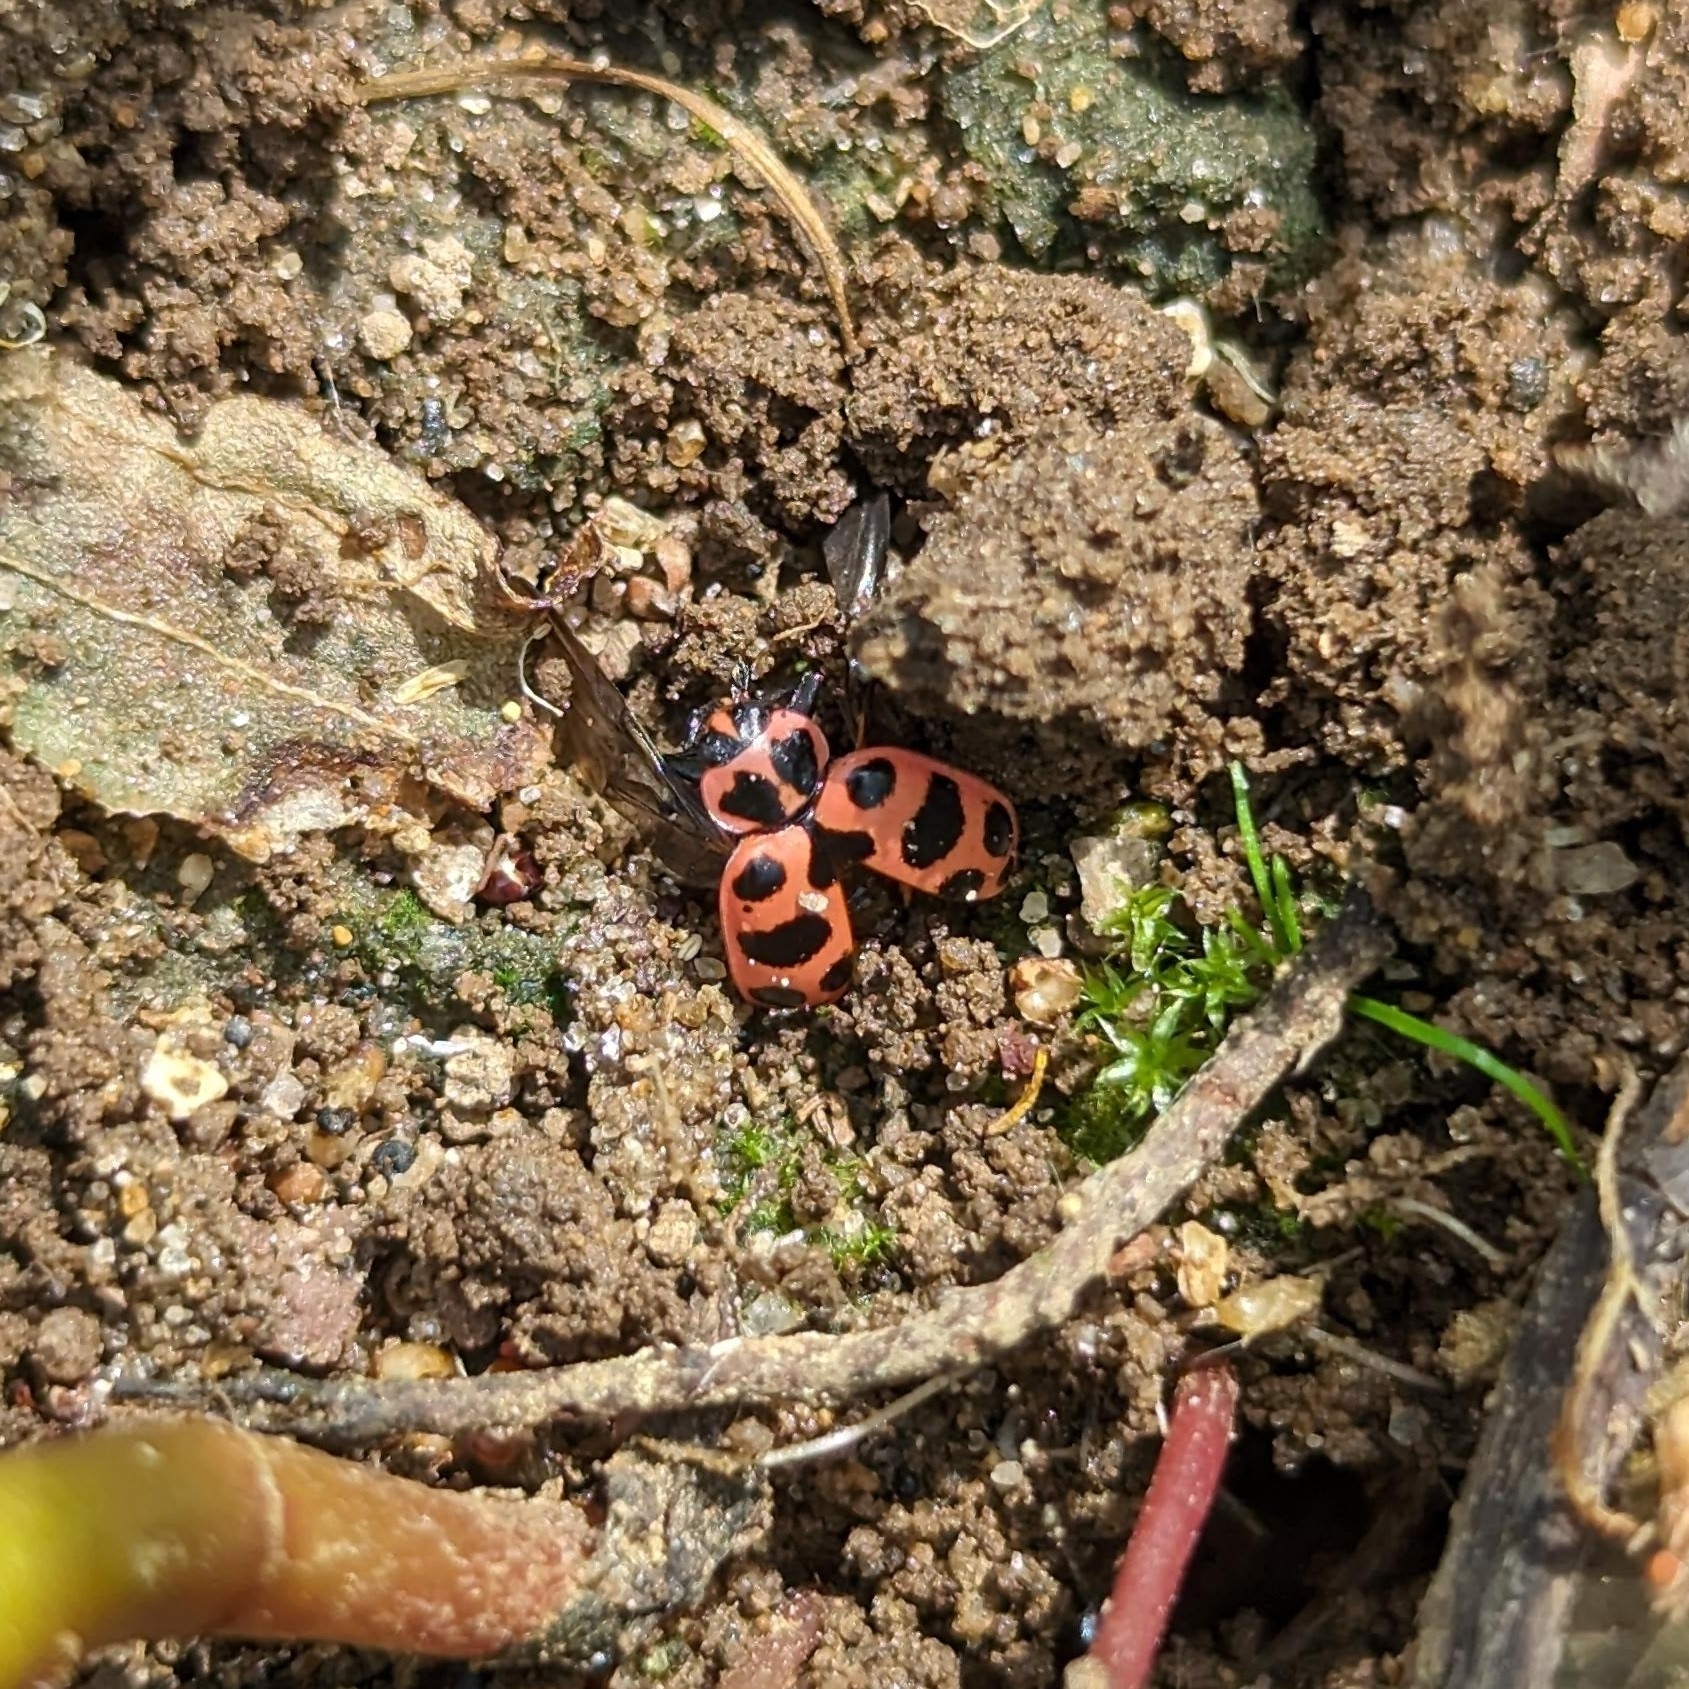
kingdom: Animalia
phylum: Arthropoda
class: Insecta
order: Coleoptera
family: Coccinellidae
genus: Coleomegilla
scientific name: Coleomegilla maculata
